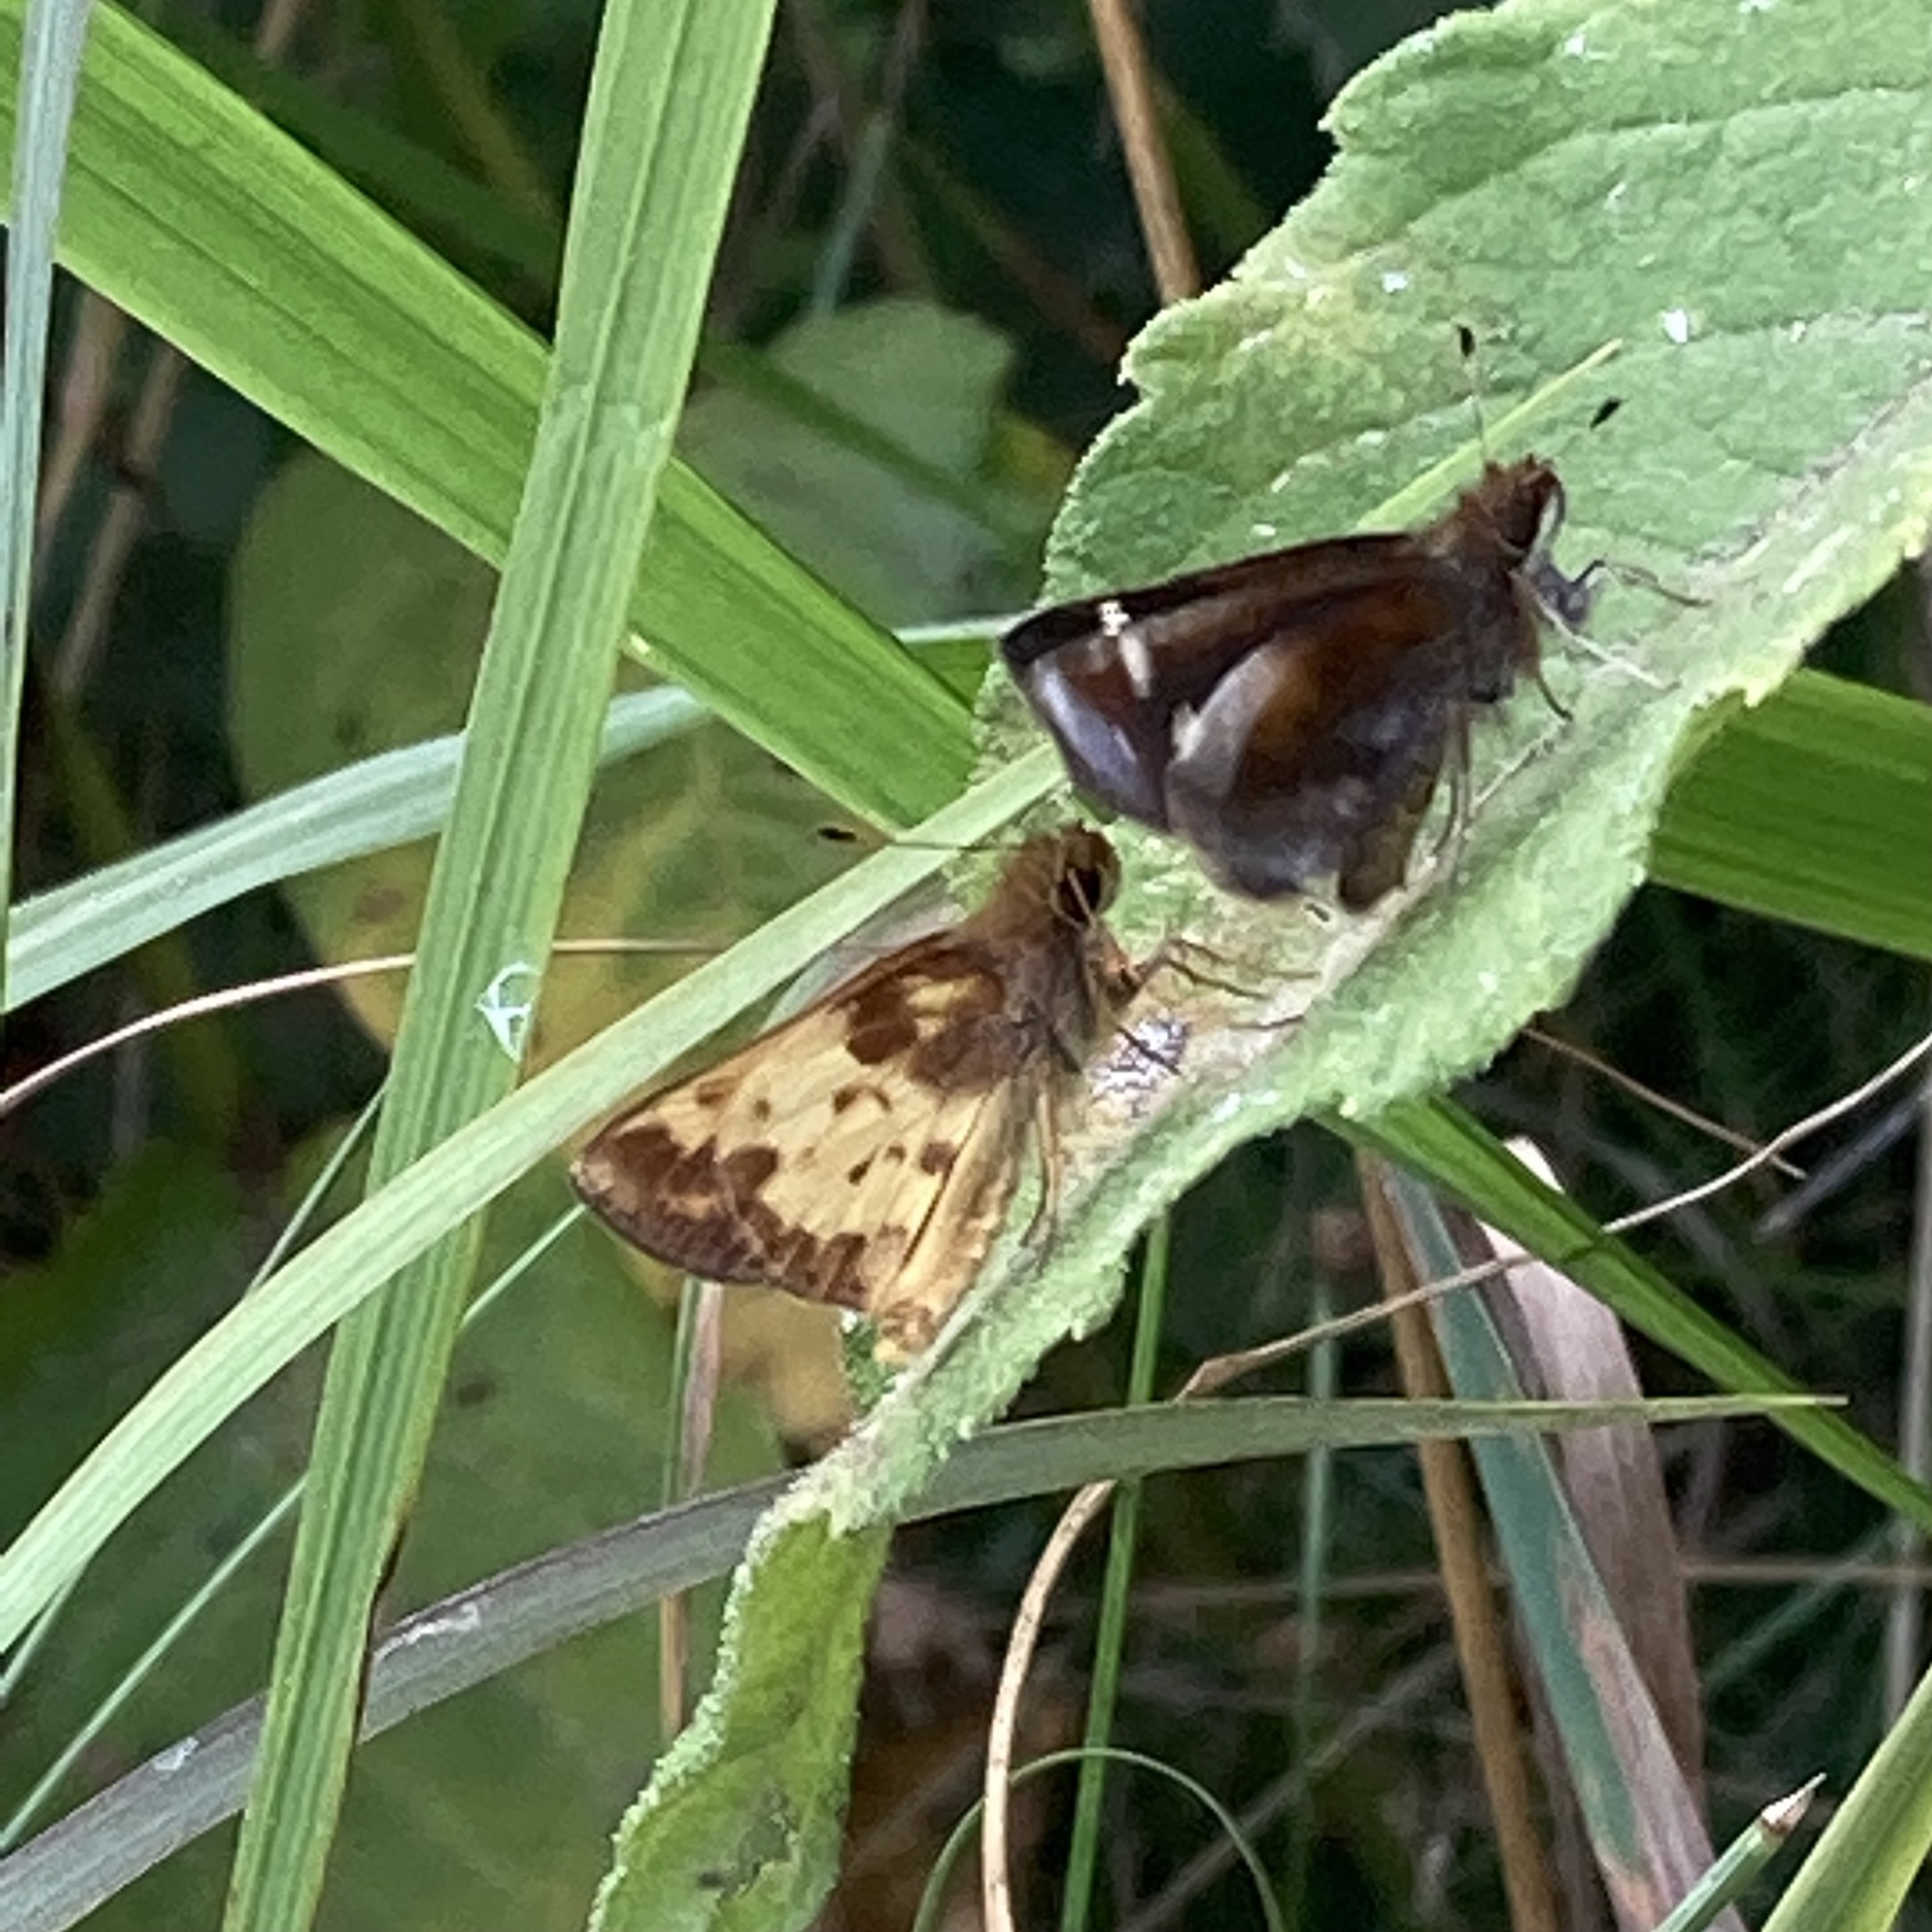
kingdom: Animalia
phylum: Arthropoda
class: Insecta
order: Lepidoptera
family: Hesperiidae
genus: Lon
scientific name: Lon zabulon
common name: Zabulon skipper
